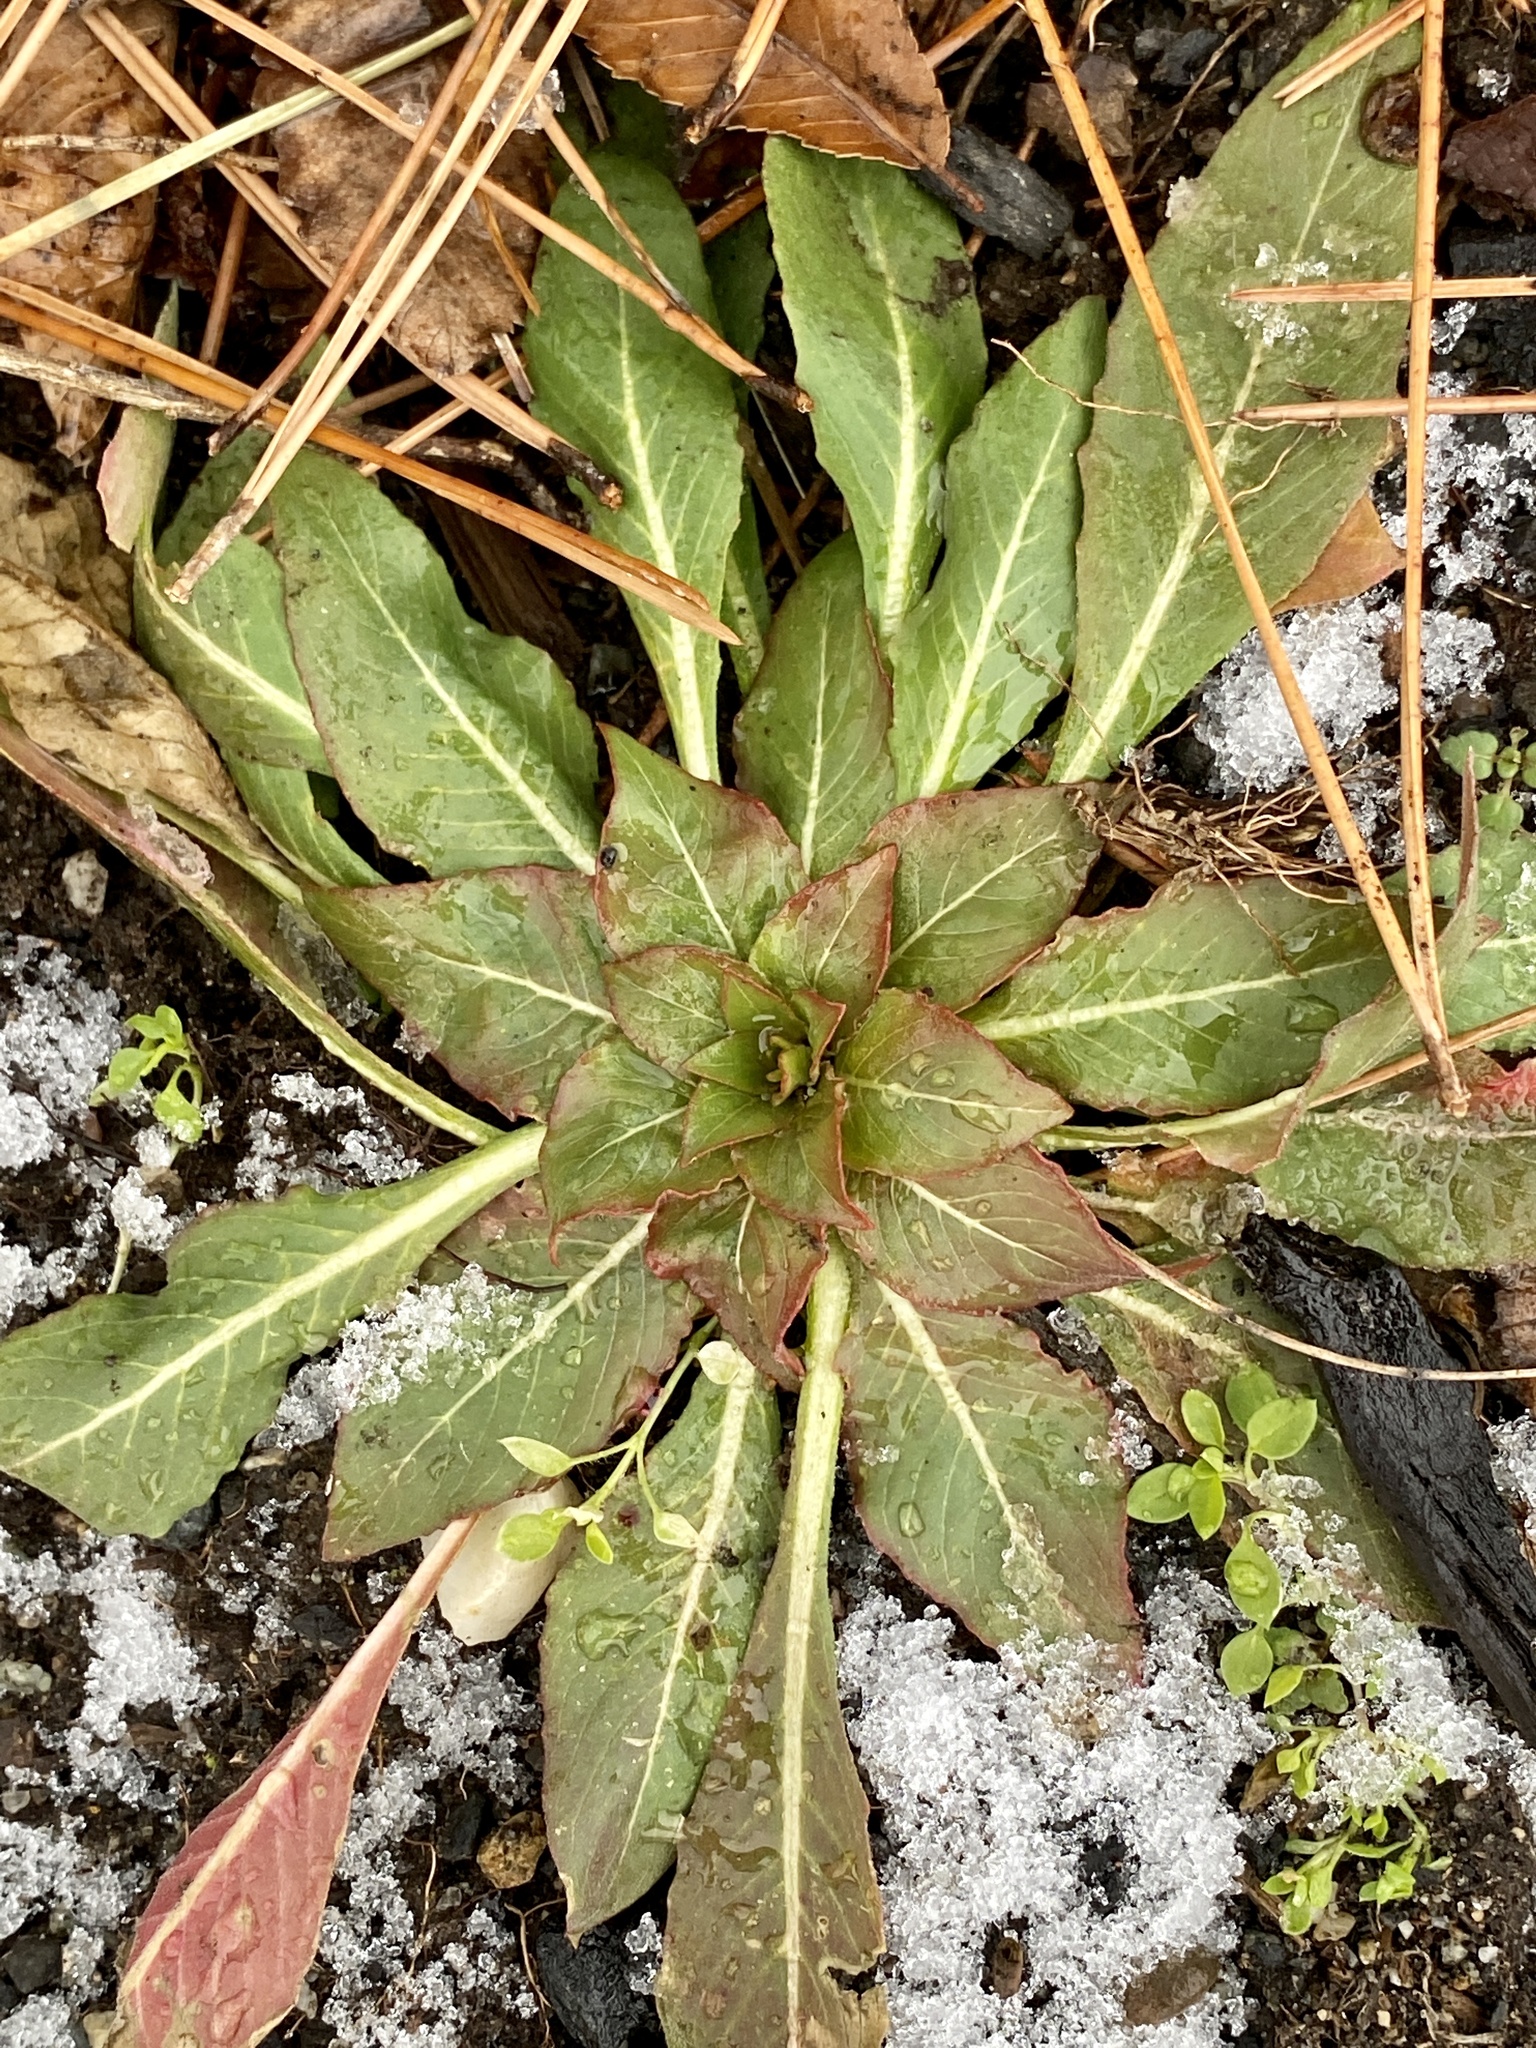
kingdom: Plantae
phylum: Tracheophyta
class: Magnoliopsida
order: Myrtales
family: Onagraceae
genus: Oenothera
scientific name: Oenothera biennis
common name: Common evening-primrose
